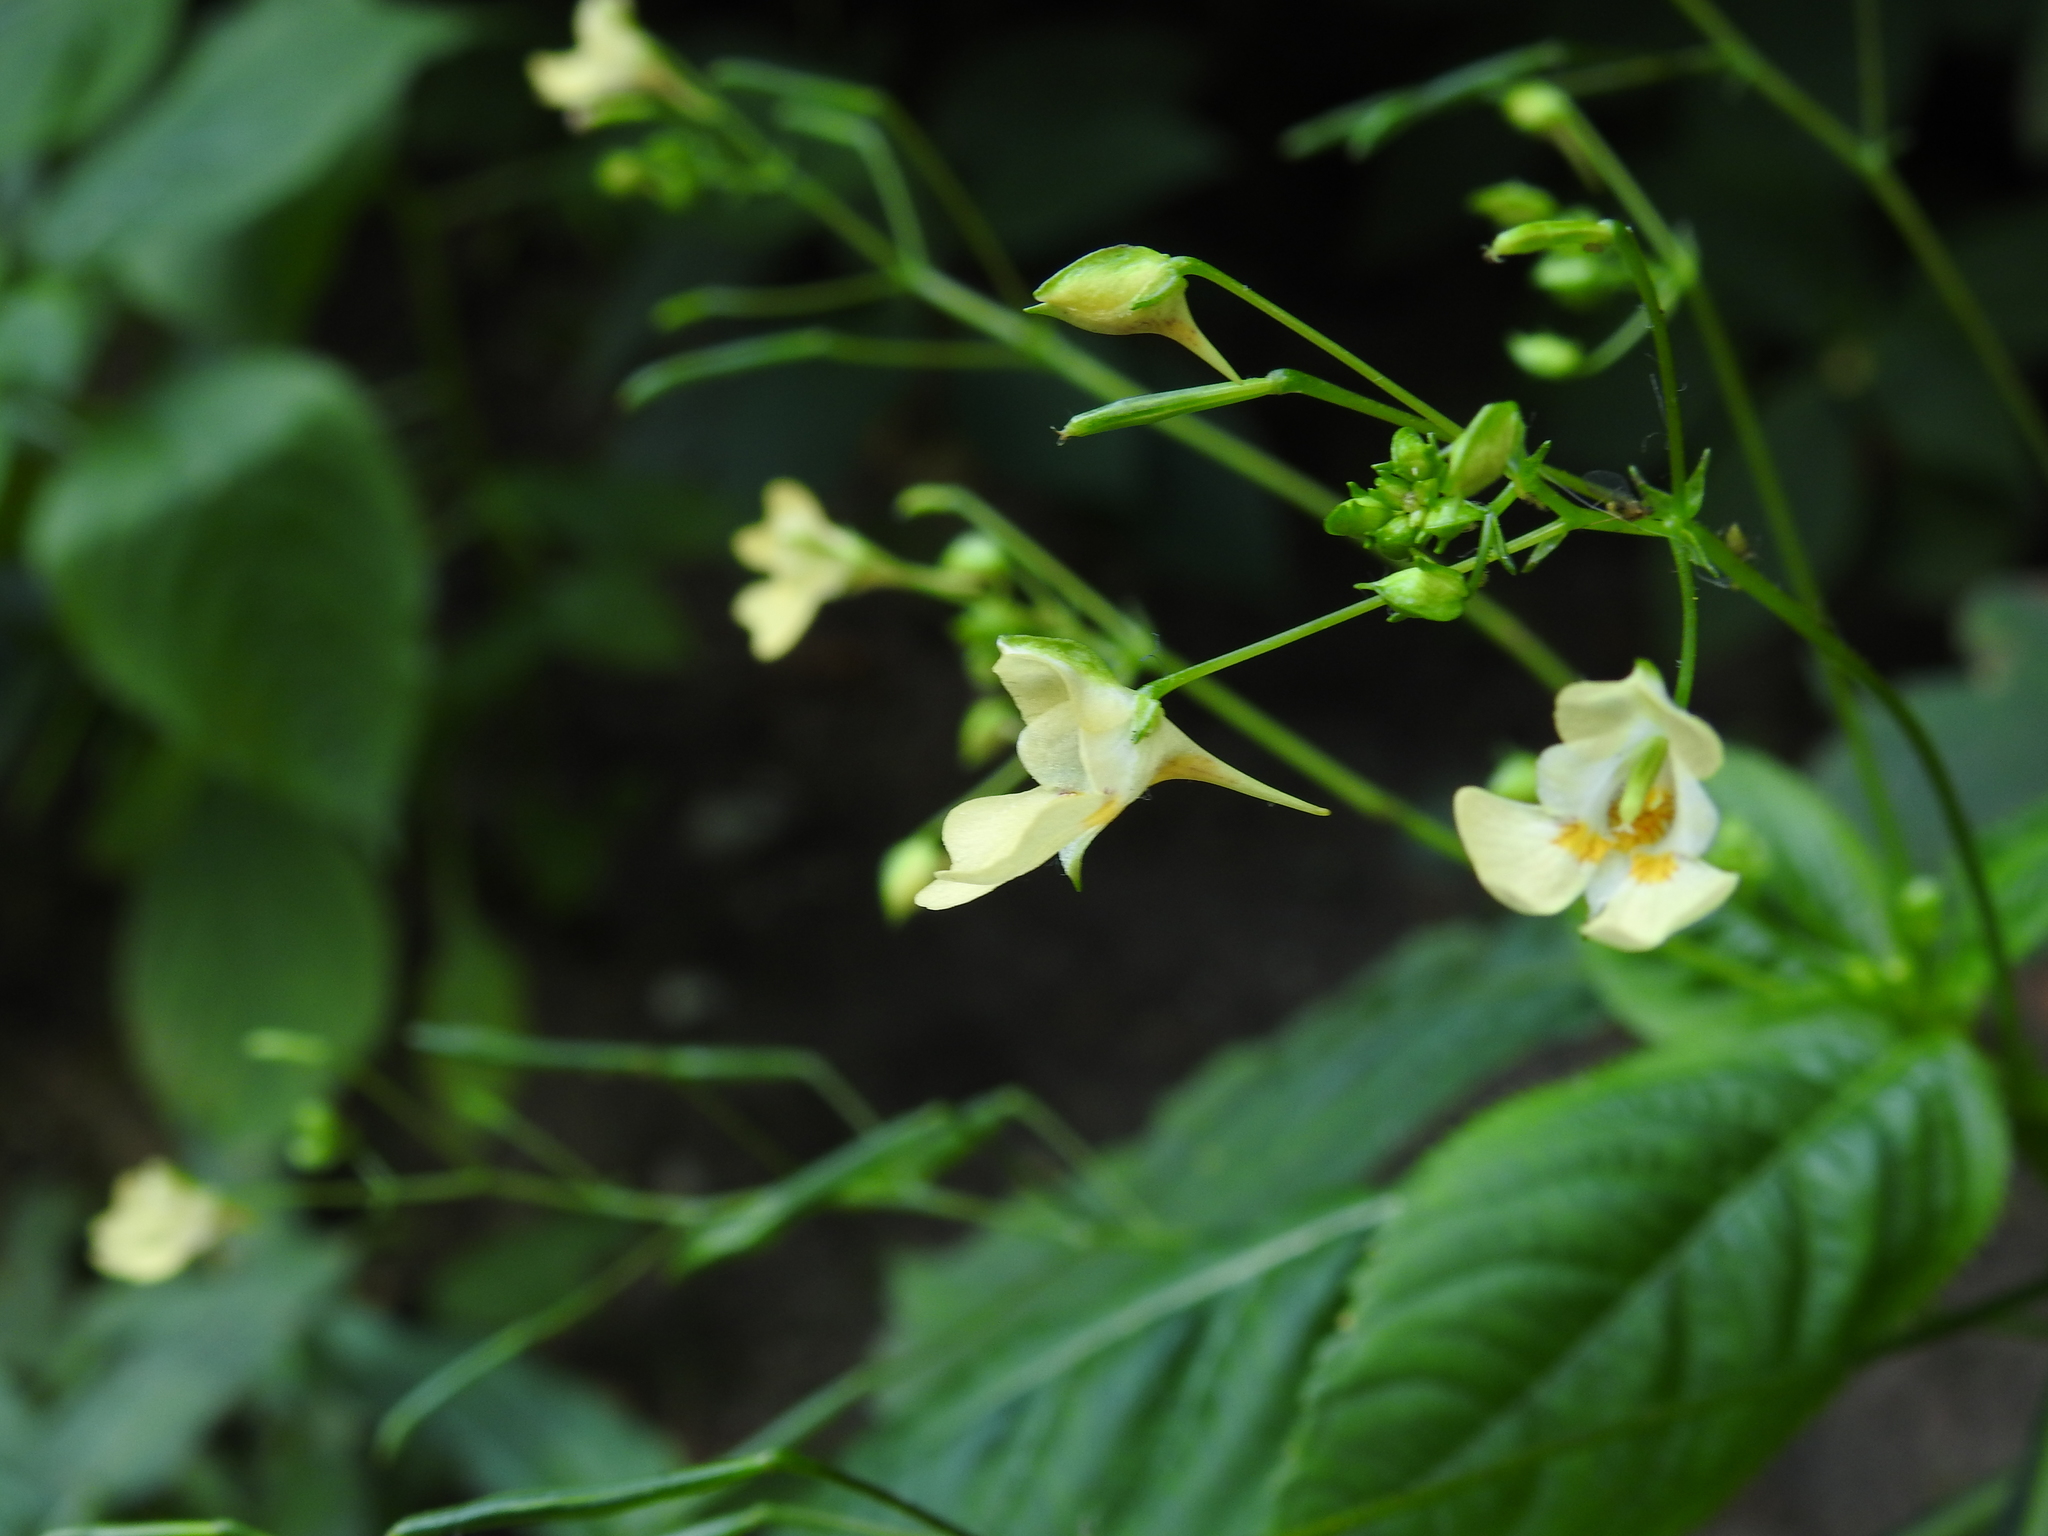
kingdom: Plantae
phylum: Tracheophyta
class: Magnoliopsida
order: Ericales
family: Balsaminaceae
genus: Impatiens
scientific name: Impatiens parviflora
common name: Small balsam
